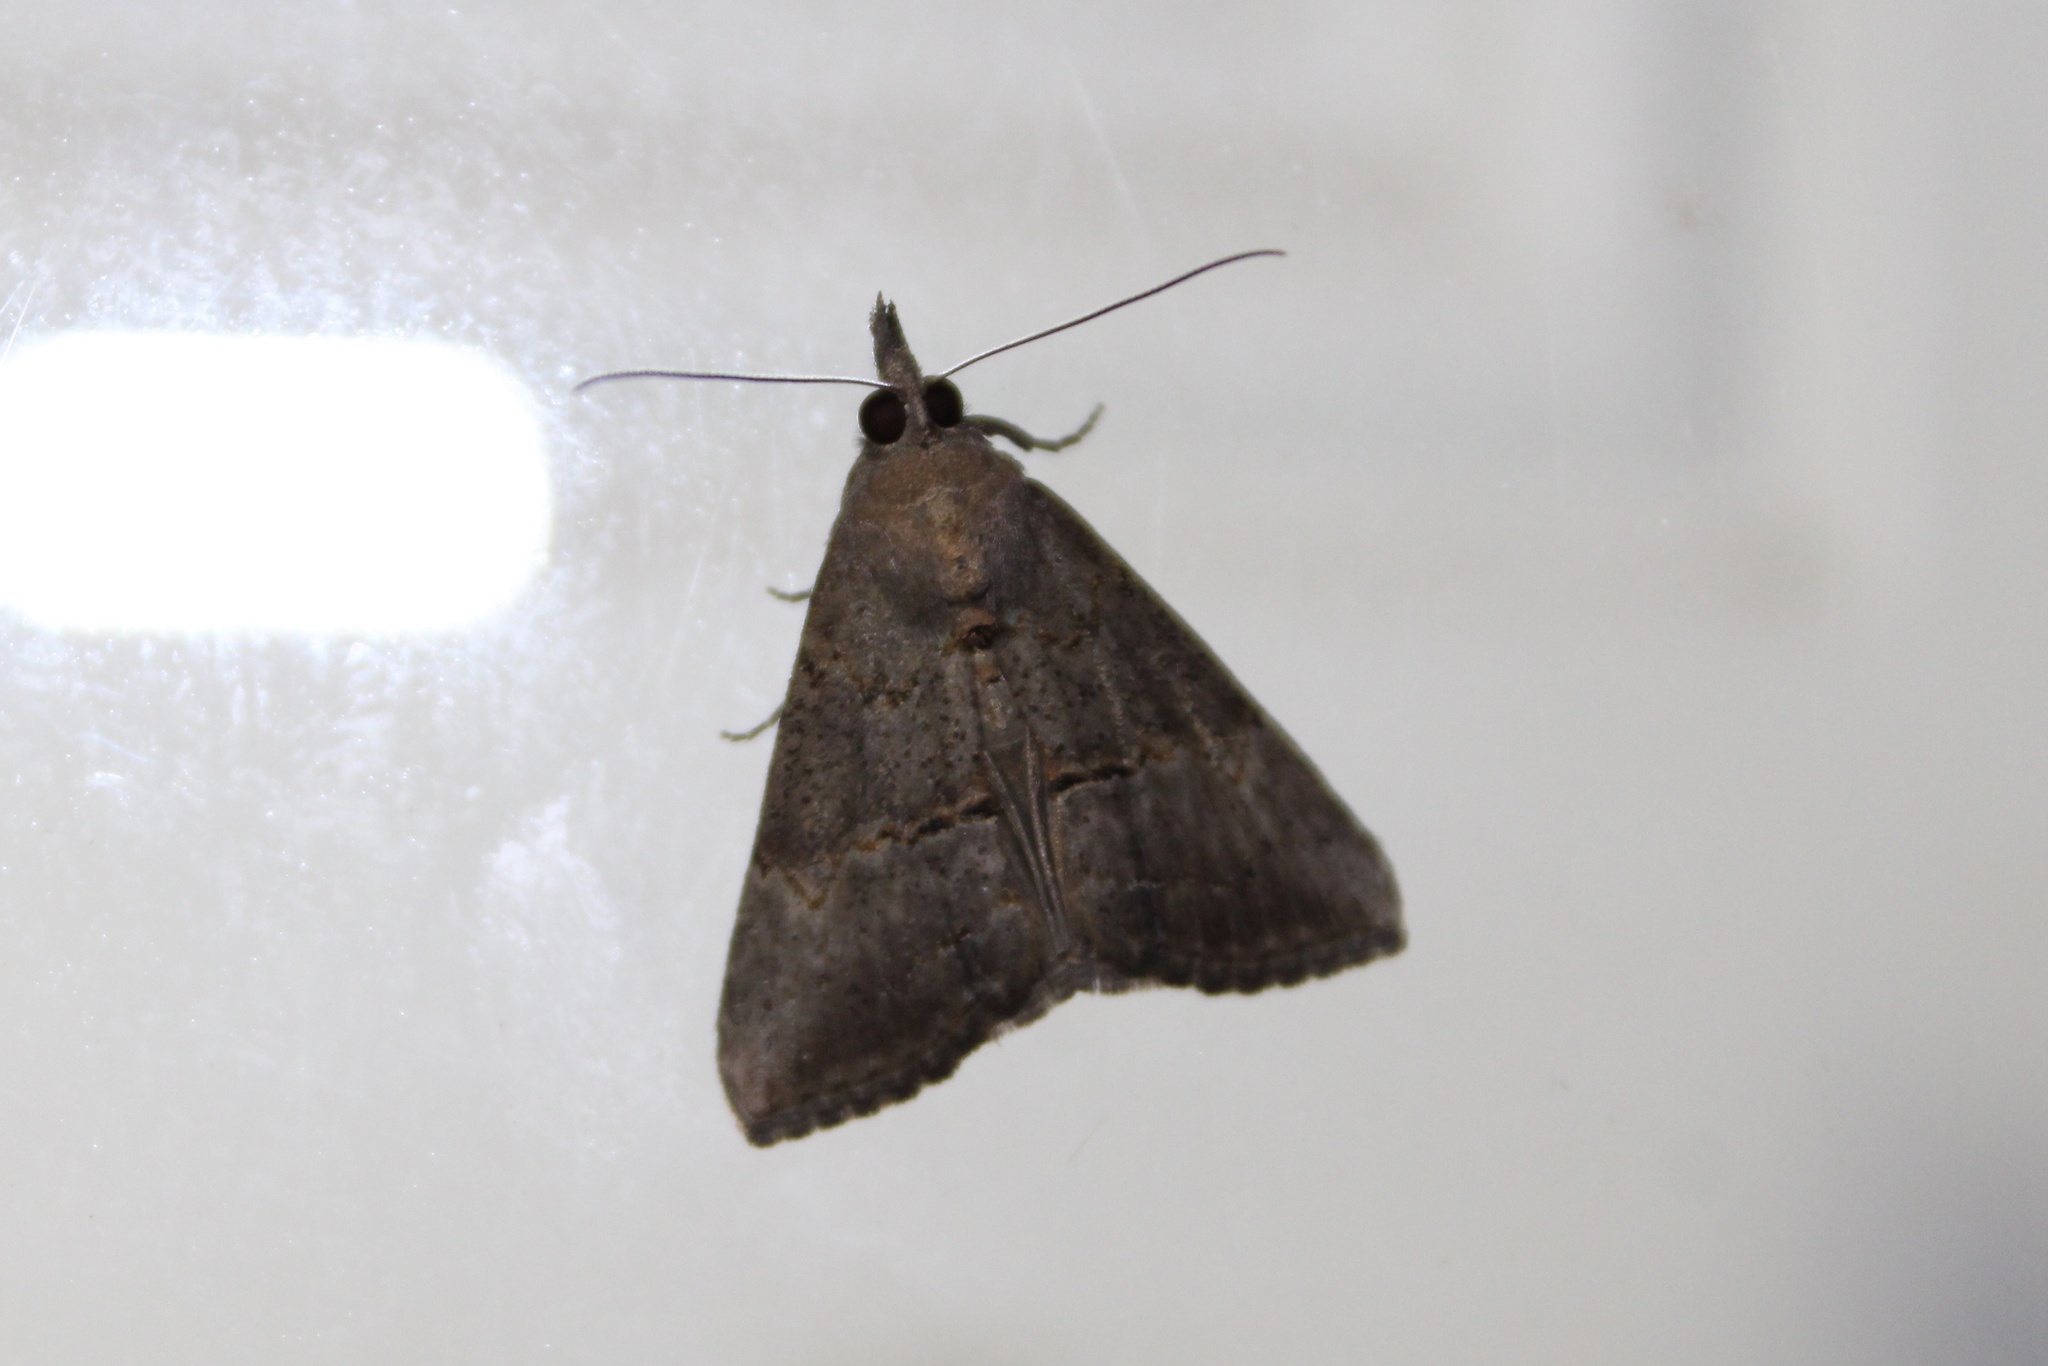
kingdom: Animalia
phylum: Arthropoda
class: Insecta
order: Lepidoptera
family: Erebidae
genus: Hypena
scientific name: Hypena scabra
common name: Green cloverworm
